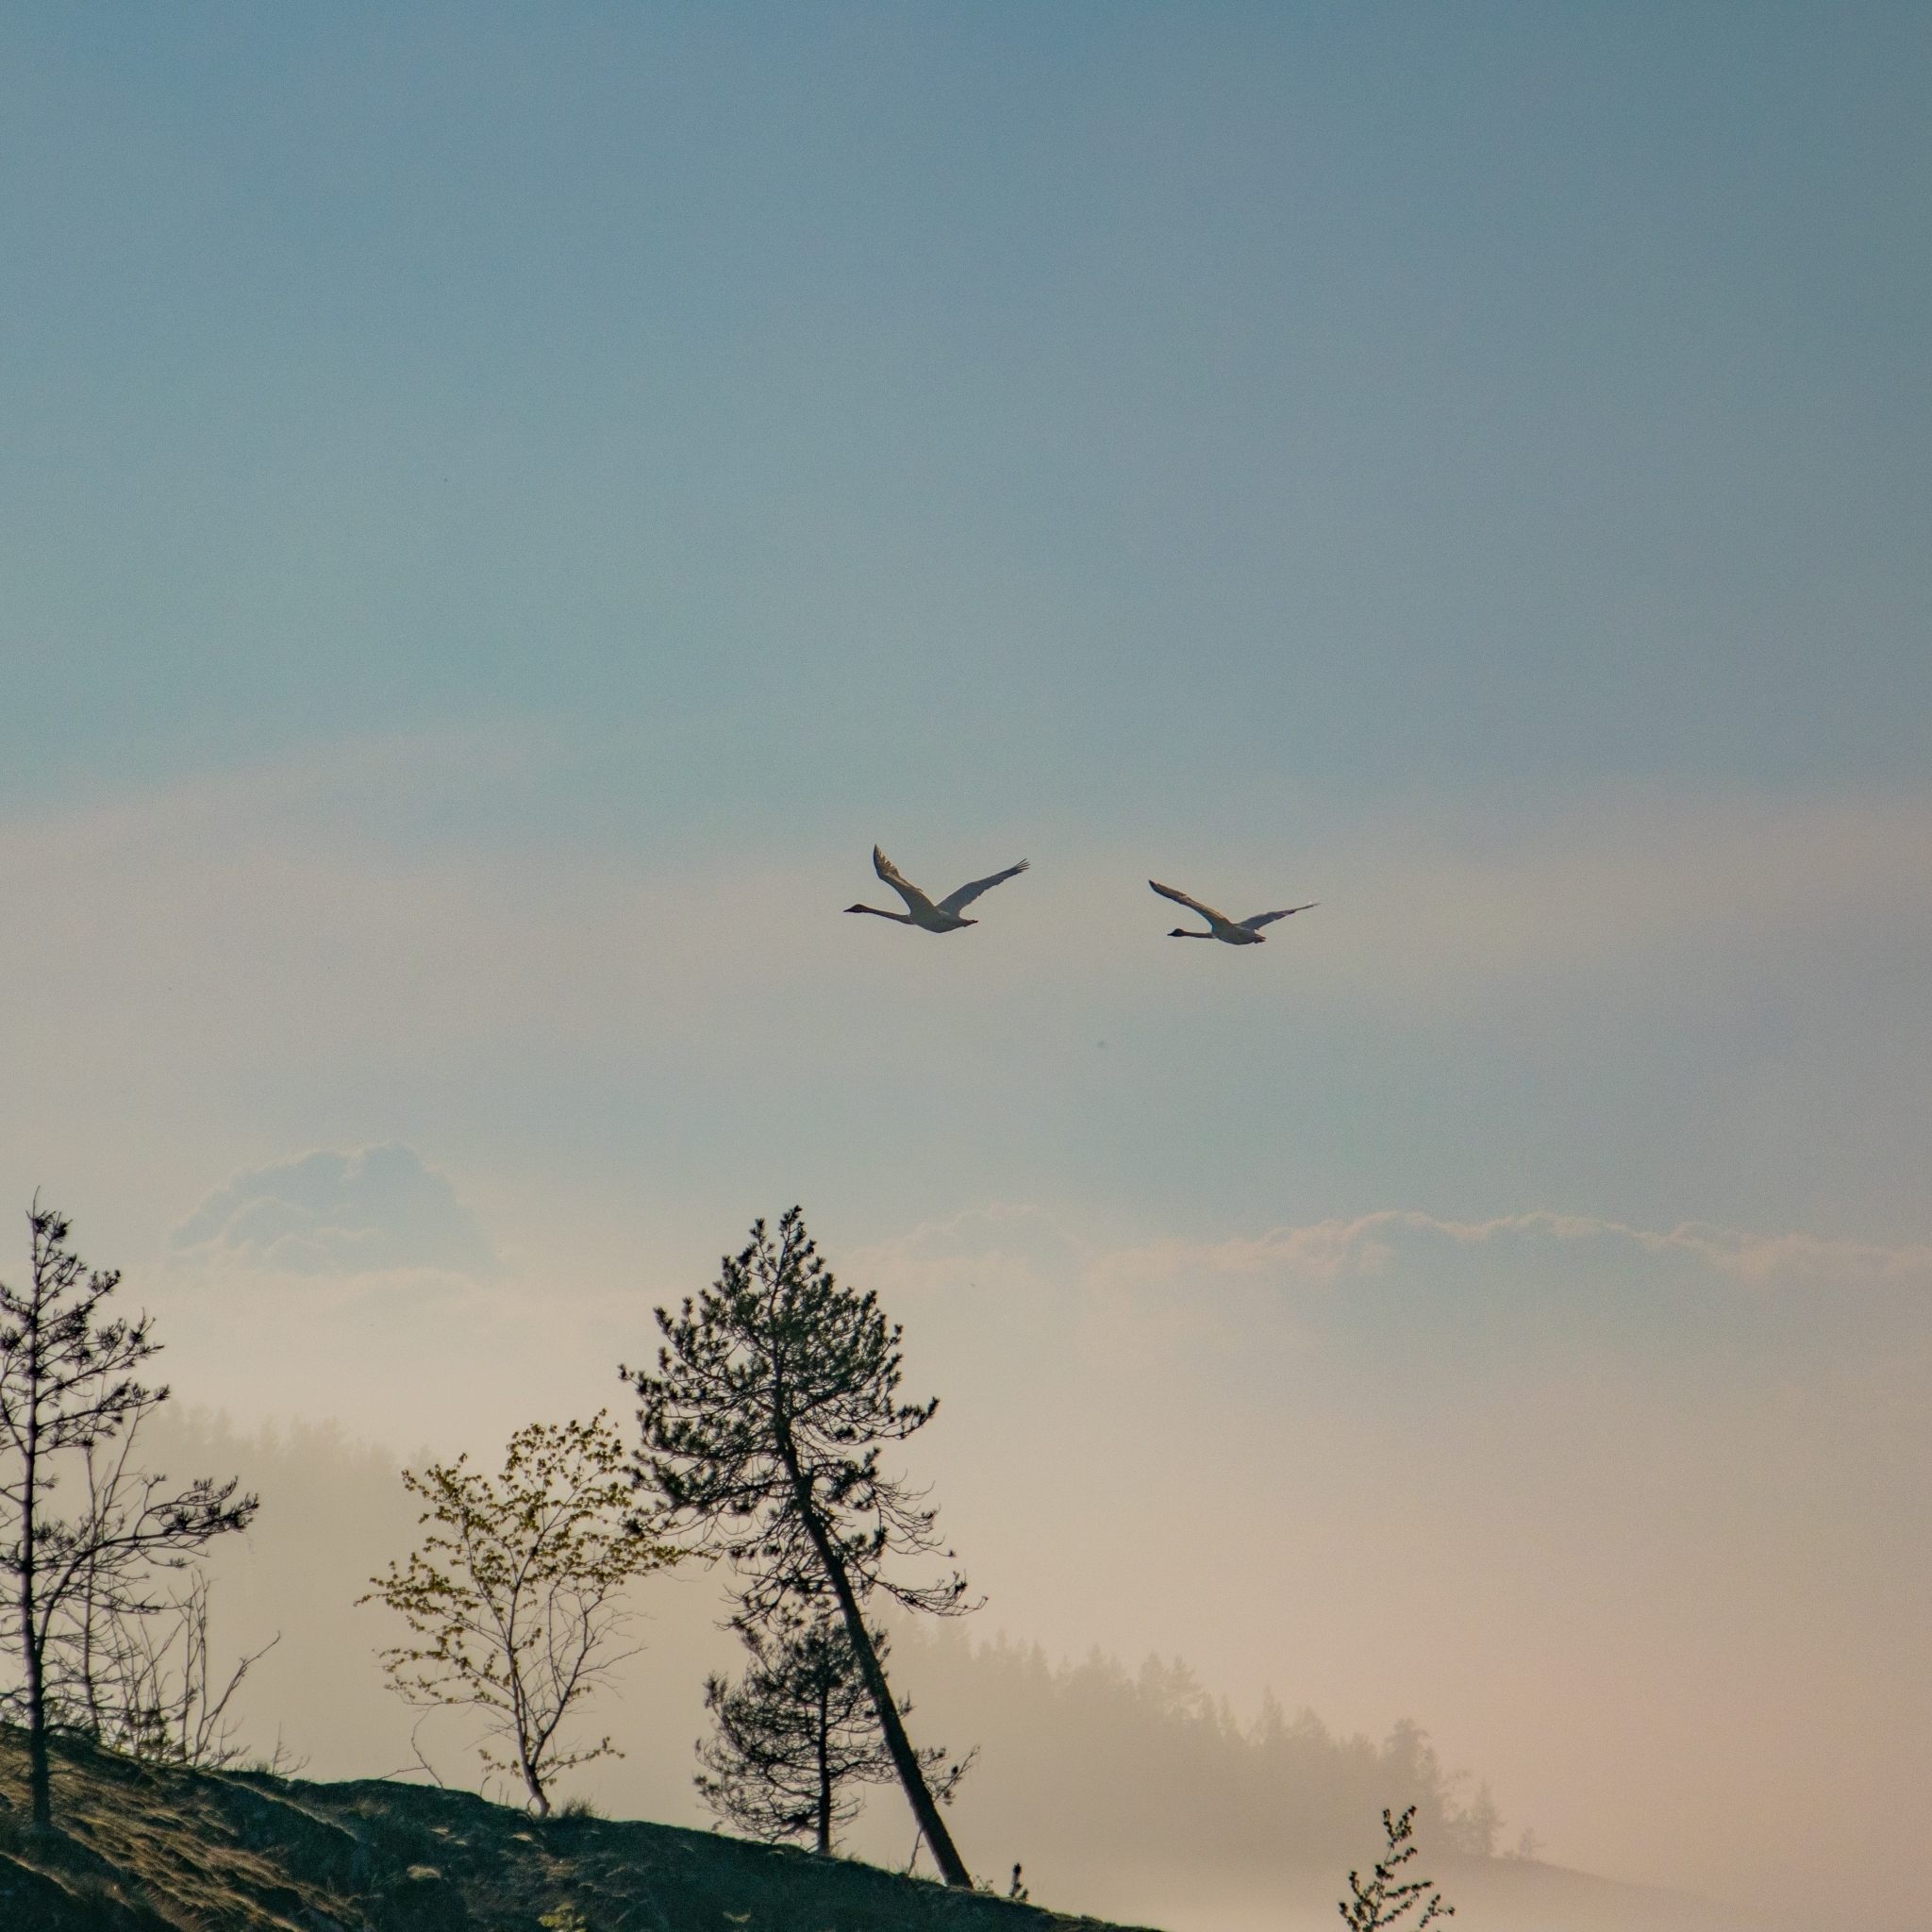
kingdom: Animalia
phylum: Chordata
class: Aves
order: Anseriformes
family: Anatidae
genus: Cygnus
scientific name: Cygnus cygnus
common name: Whooper swan
